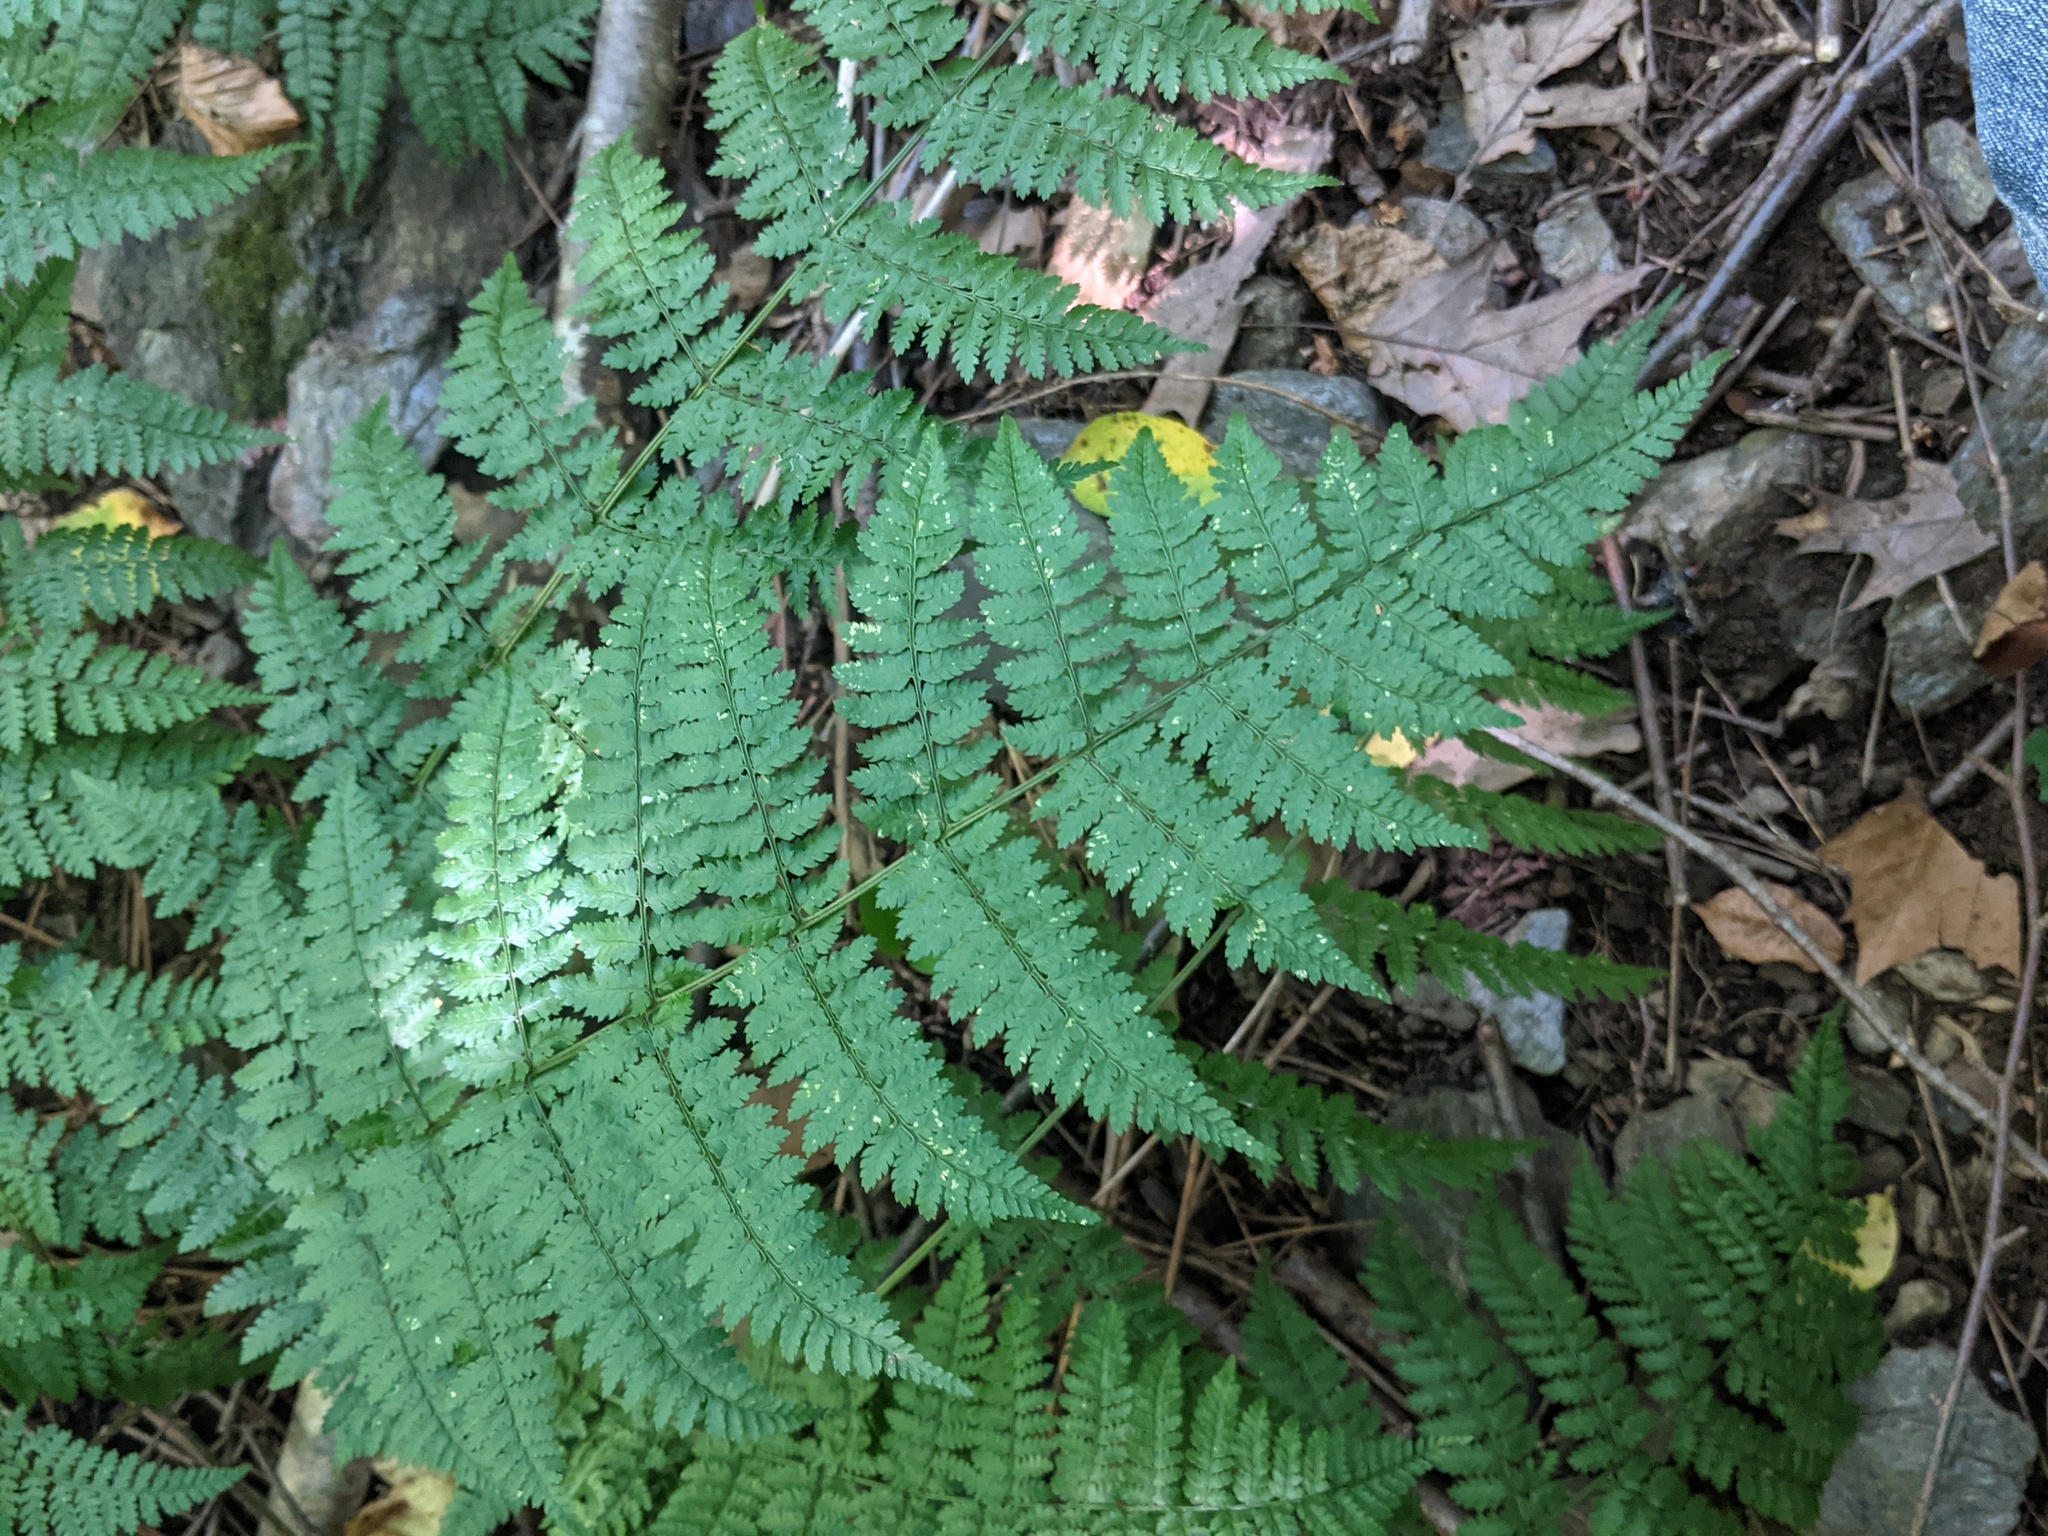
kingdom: Plantae
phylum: Tracheophyta
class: Polypodiopsida
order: Polypodiales
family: Dryopteridaceae
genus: Dryopteris
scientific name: Dryopteris intermedia
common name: Evergreen wood fern
